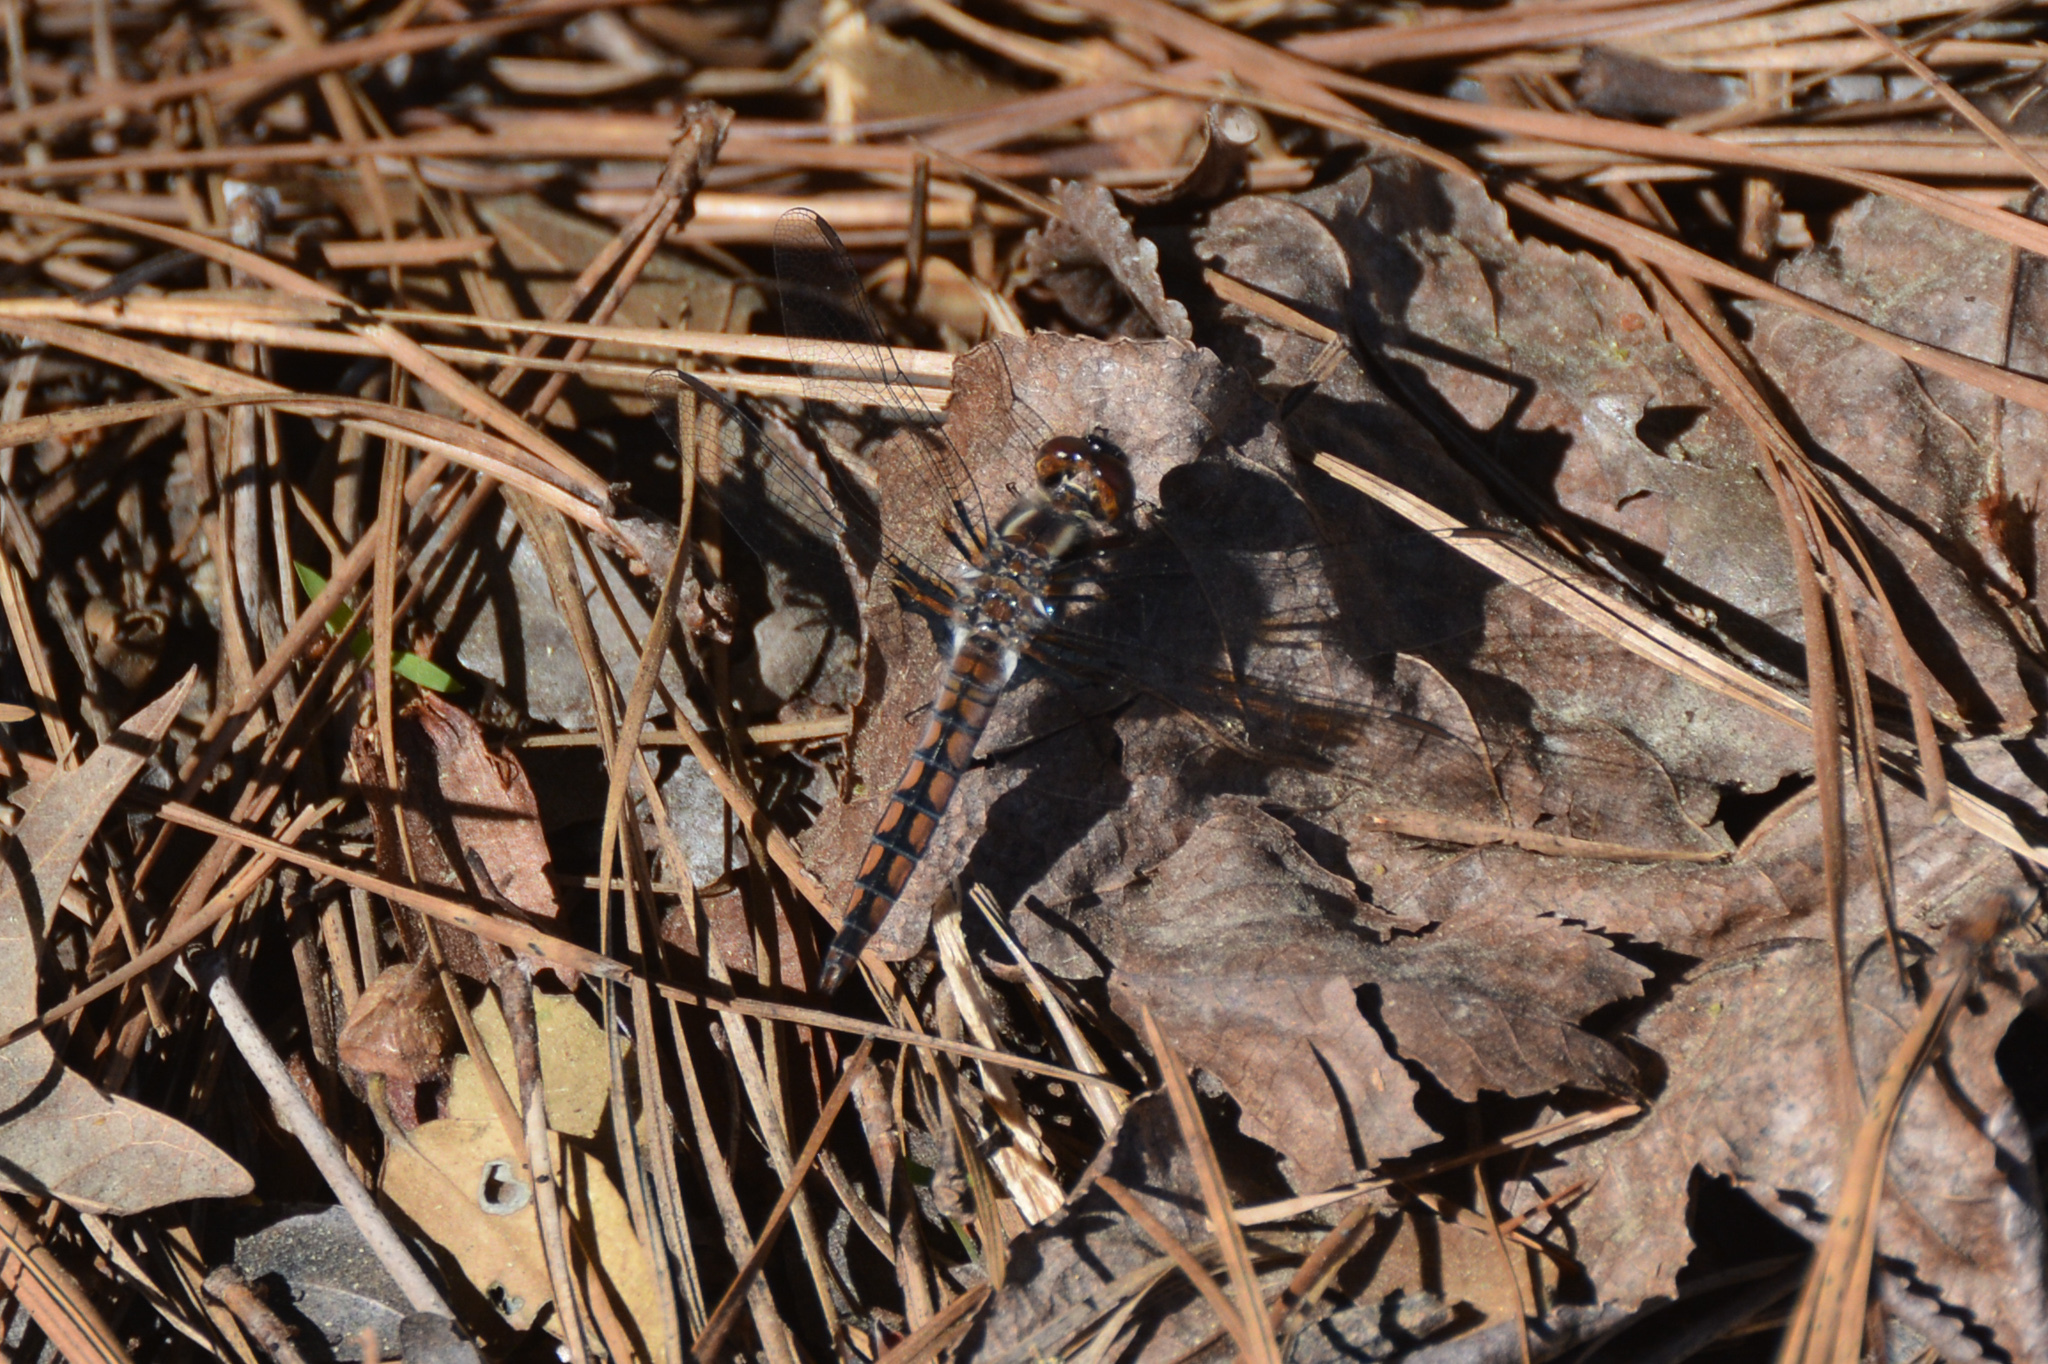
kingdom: Animalia
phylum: Arthropoda
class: Insecta
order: Odonata
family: Libellulidae
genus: Ladona
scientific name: Ladona deplanata
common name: Blue corporal
